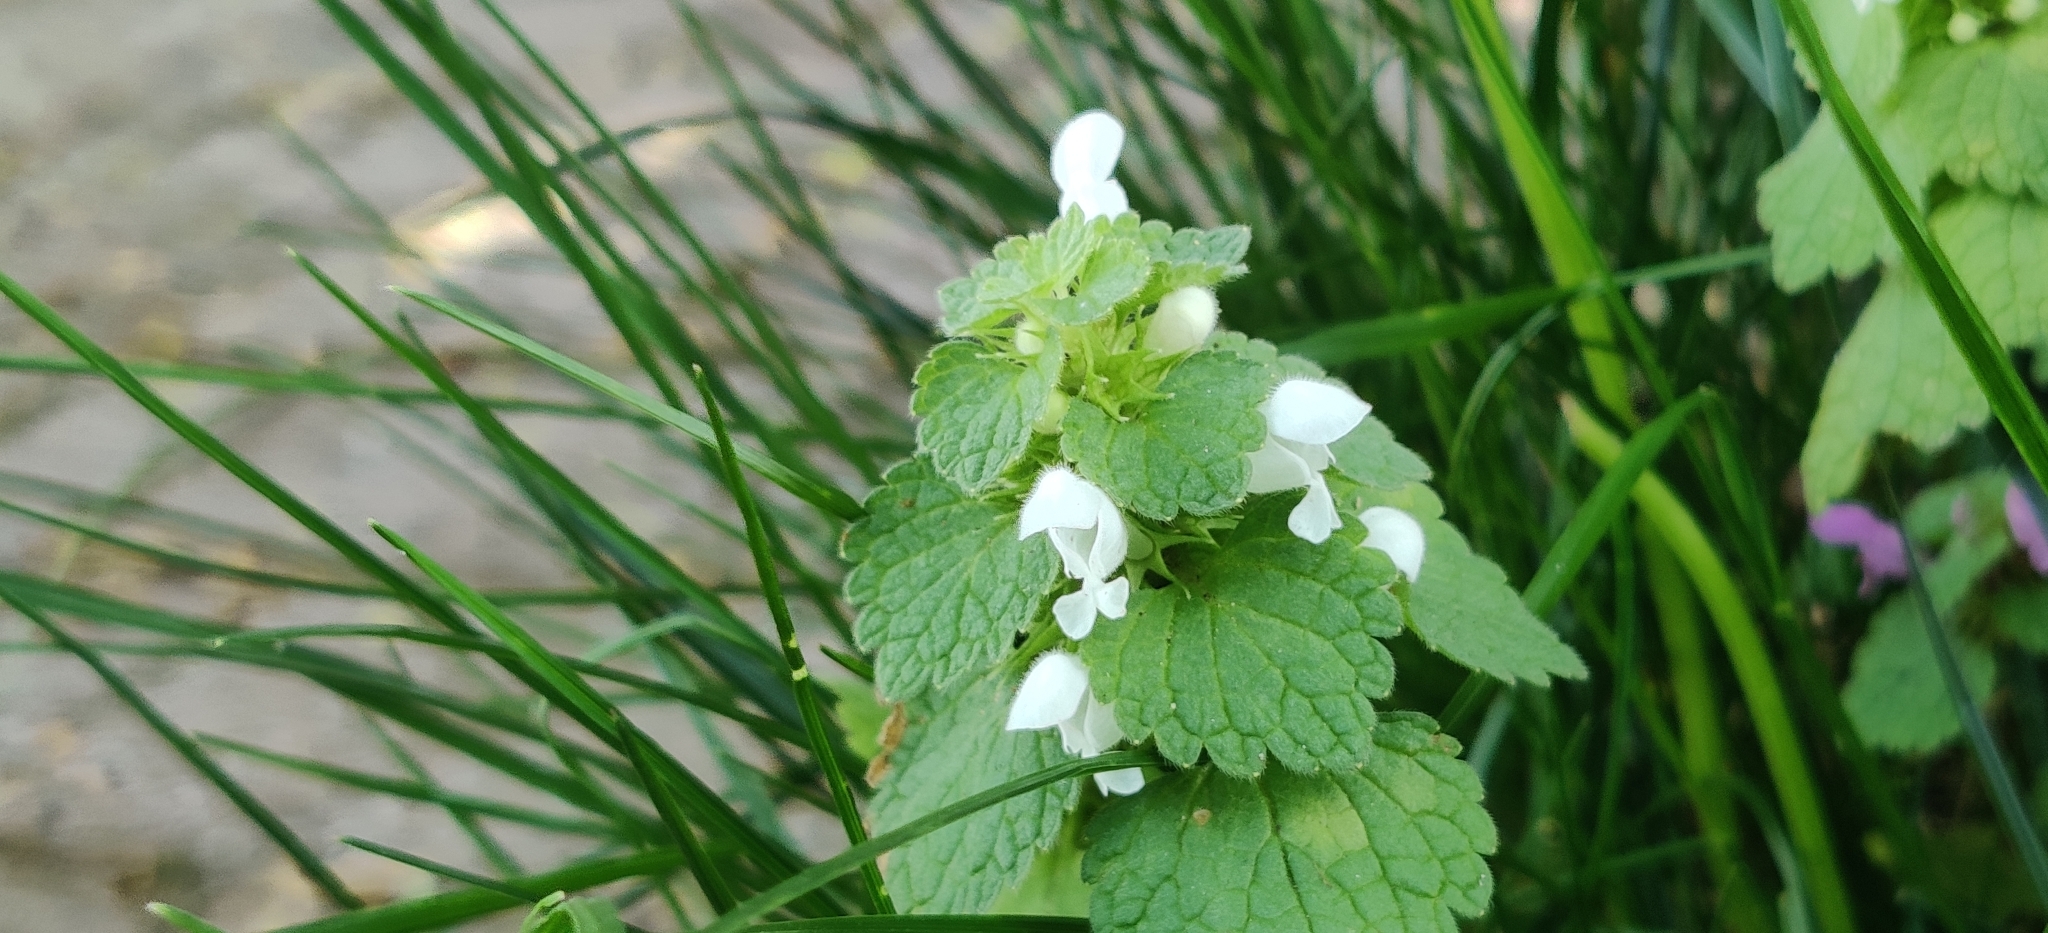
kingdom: Plantae
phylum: Tracheophyta
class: Magnoliopsida
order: Lamiales
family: Lamiaceae
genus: Lamium
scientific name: Lamium purpureum
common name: Red dead-nettle
